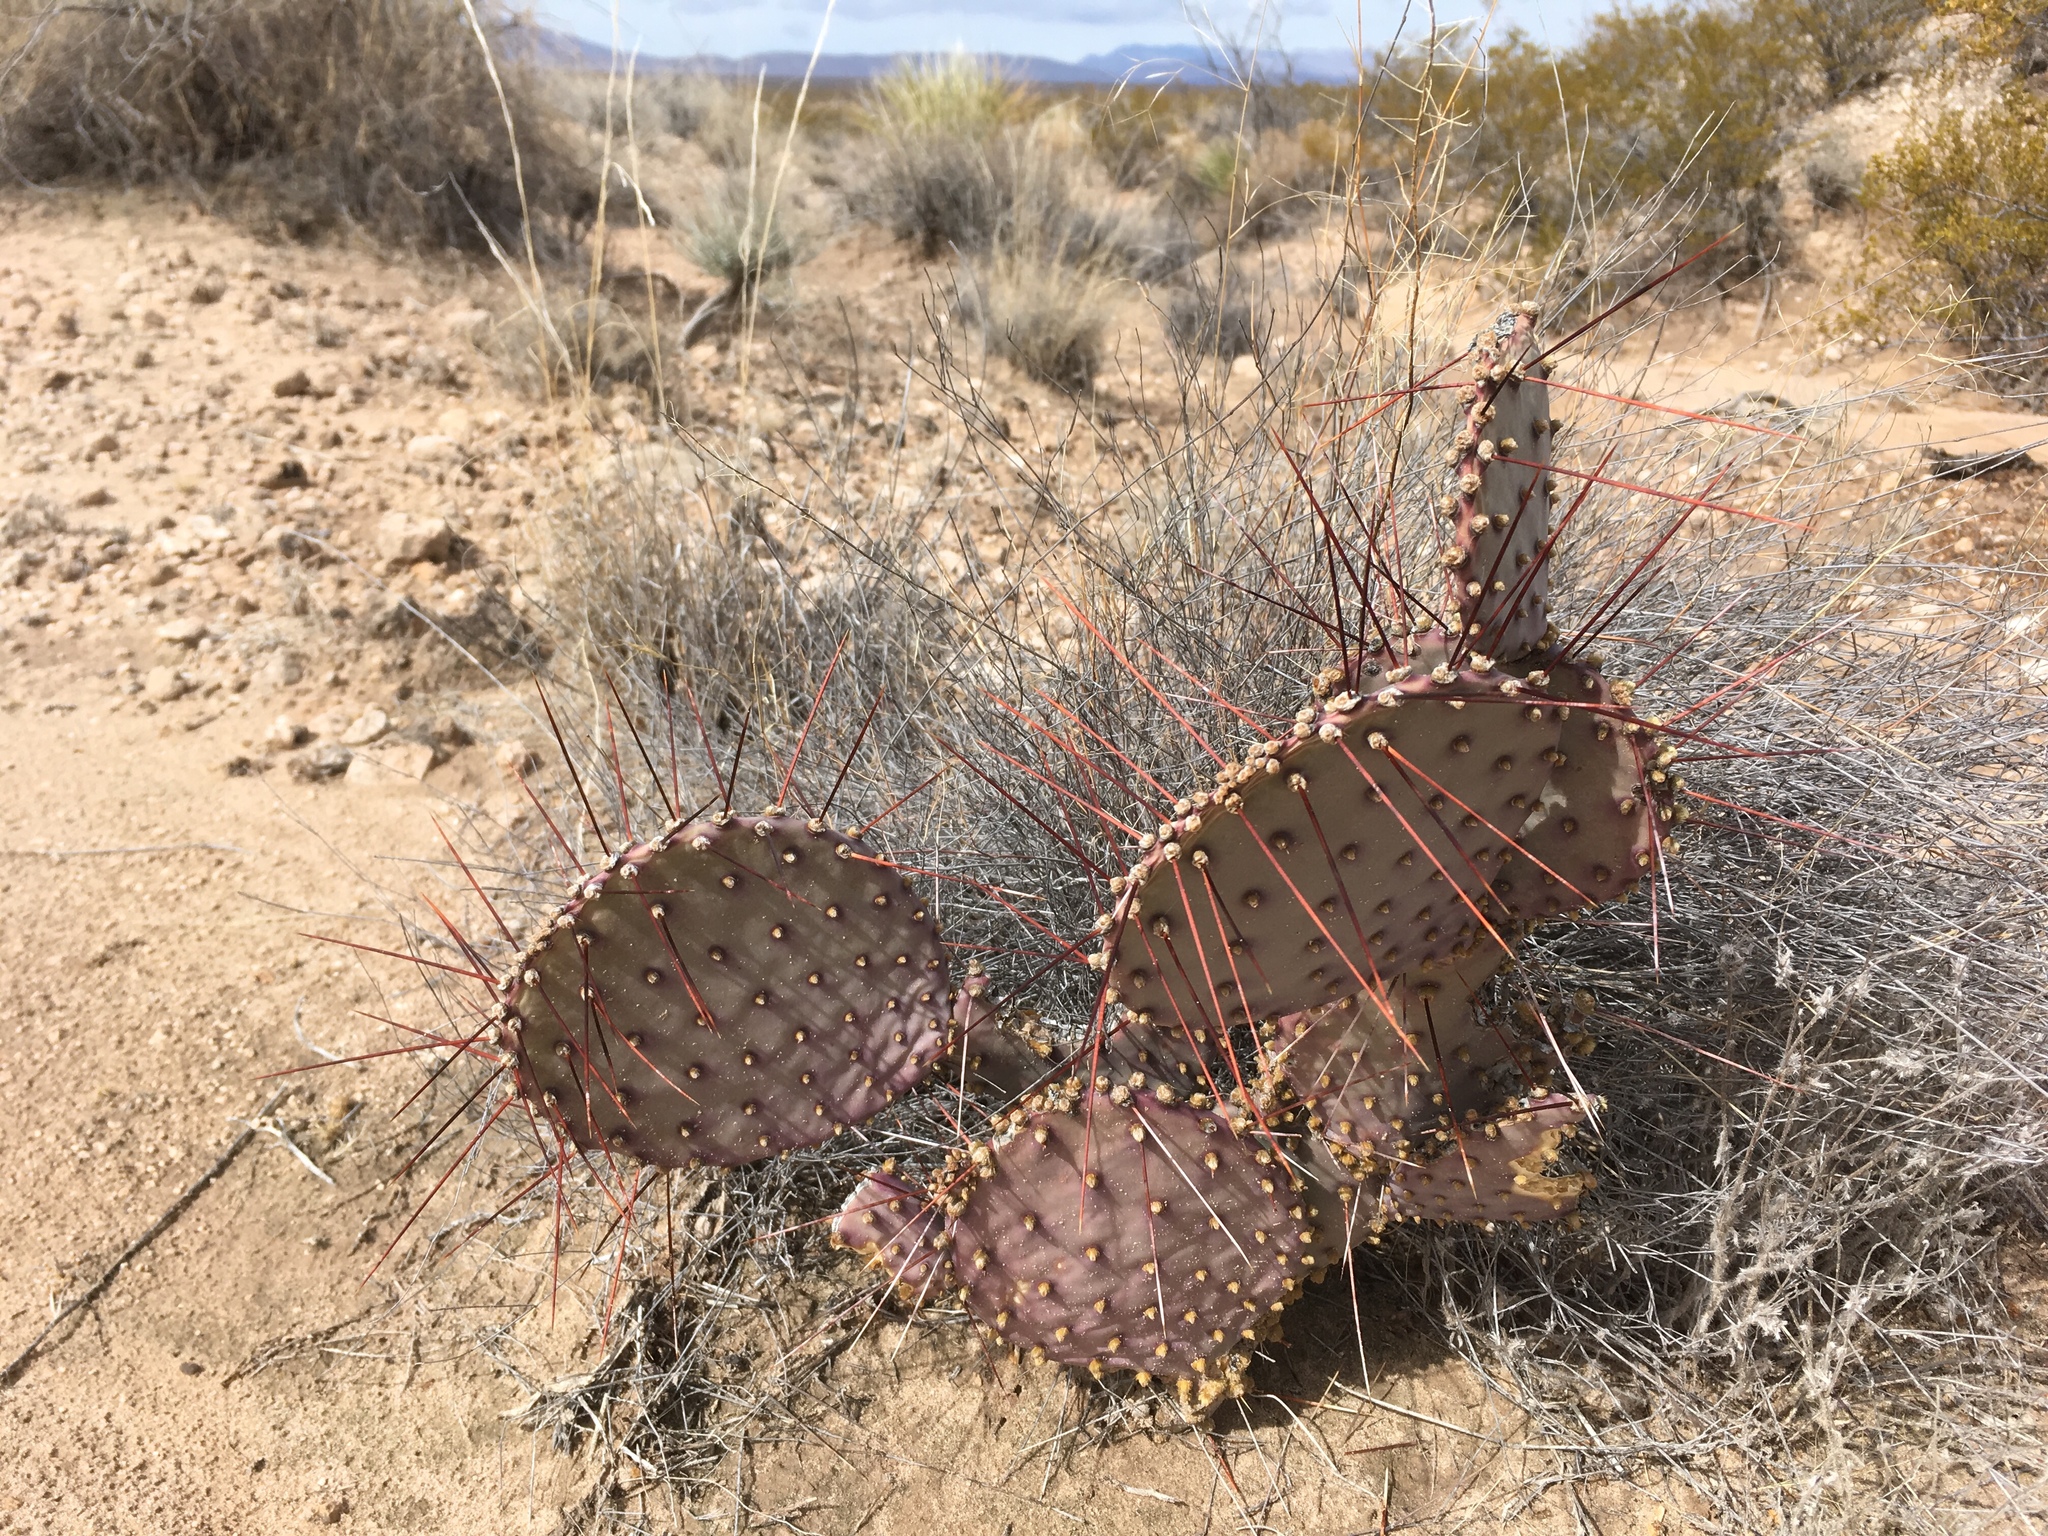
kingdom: Plantae
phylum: Tracheophyta
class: Magnoliopsida
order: Caryophyllales
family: Cactaceae
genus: Opuntia
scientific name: Opuntia macrocentra
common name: Purple prickly-pear
